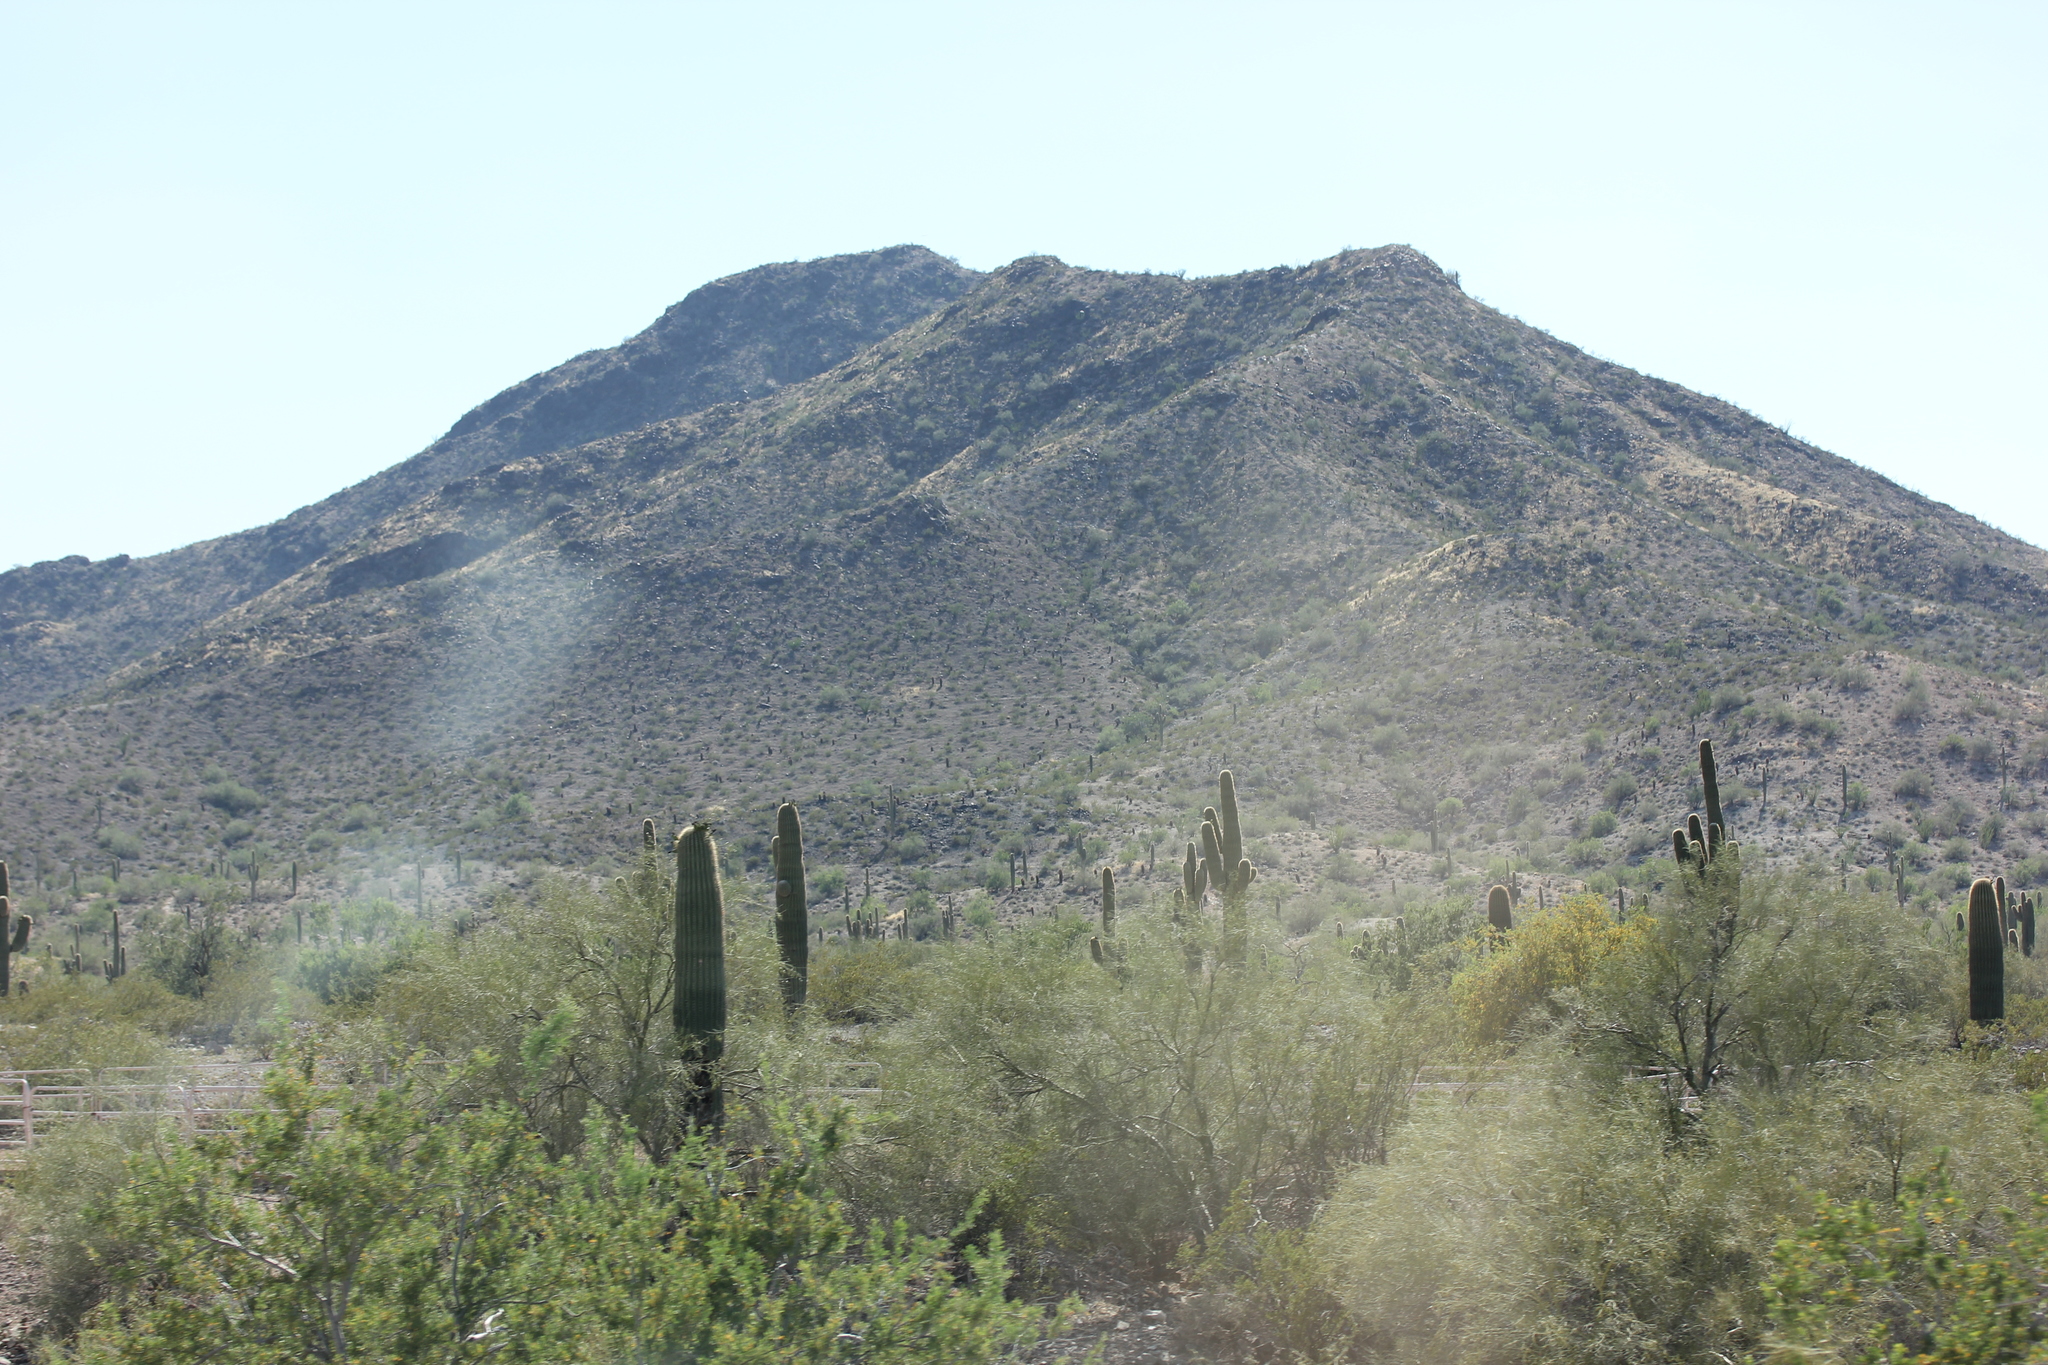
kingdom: Plantae
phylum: Tracheophyta
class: Magnoliopsida
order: Caryophyllales
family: Cactaceae
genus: Carnegiea
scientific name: Carnegiea gigantea
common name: Saguaro
